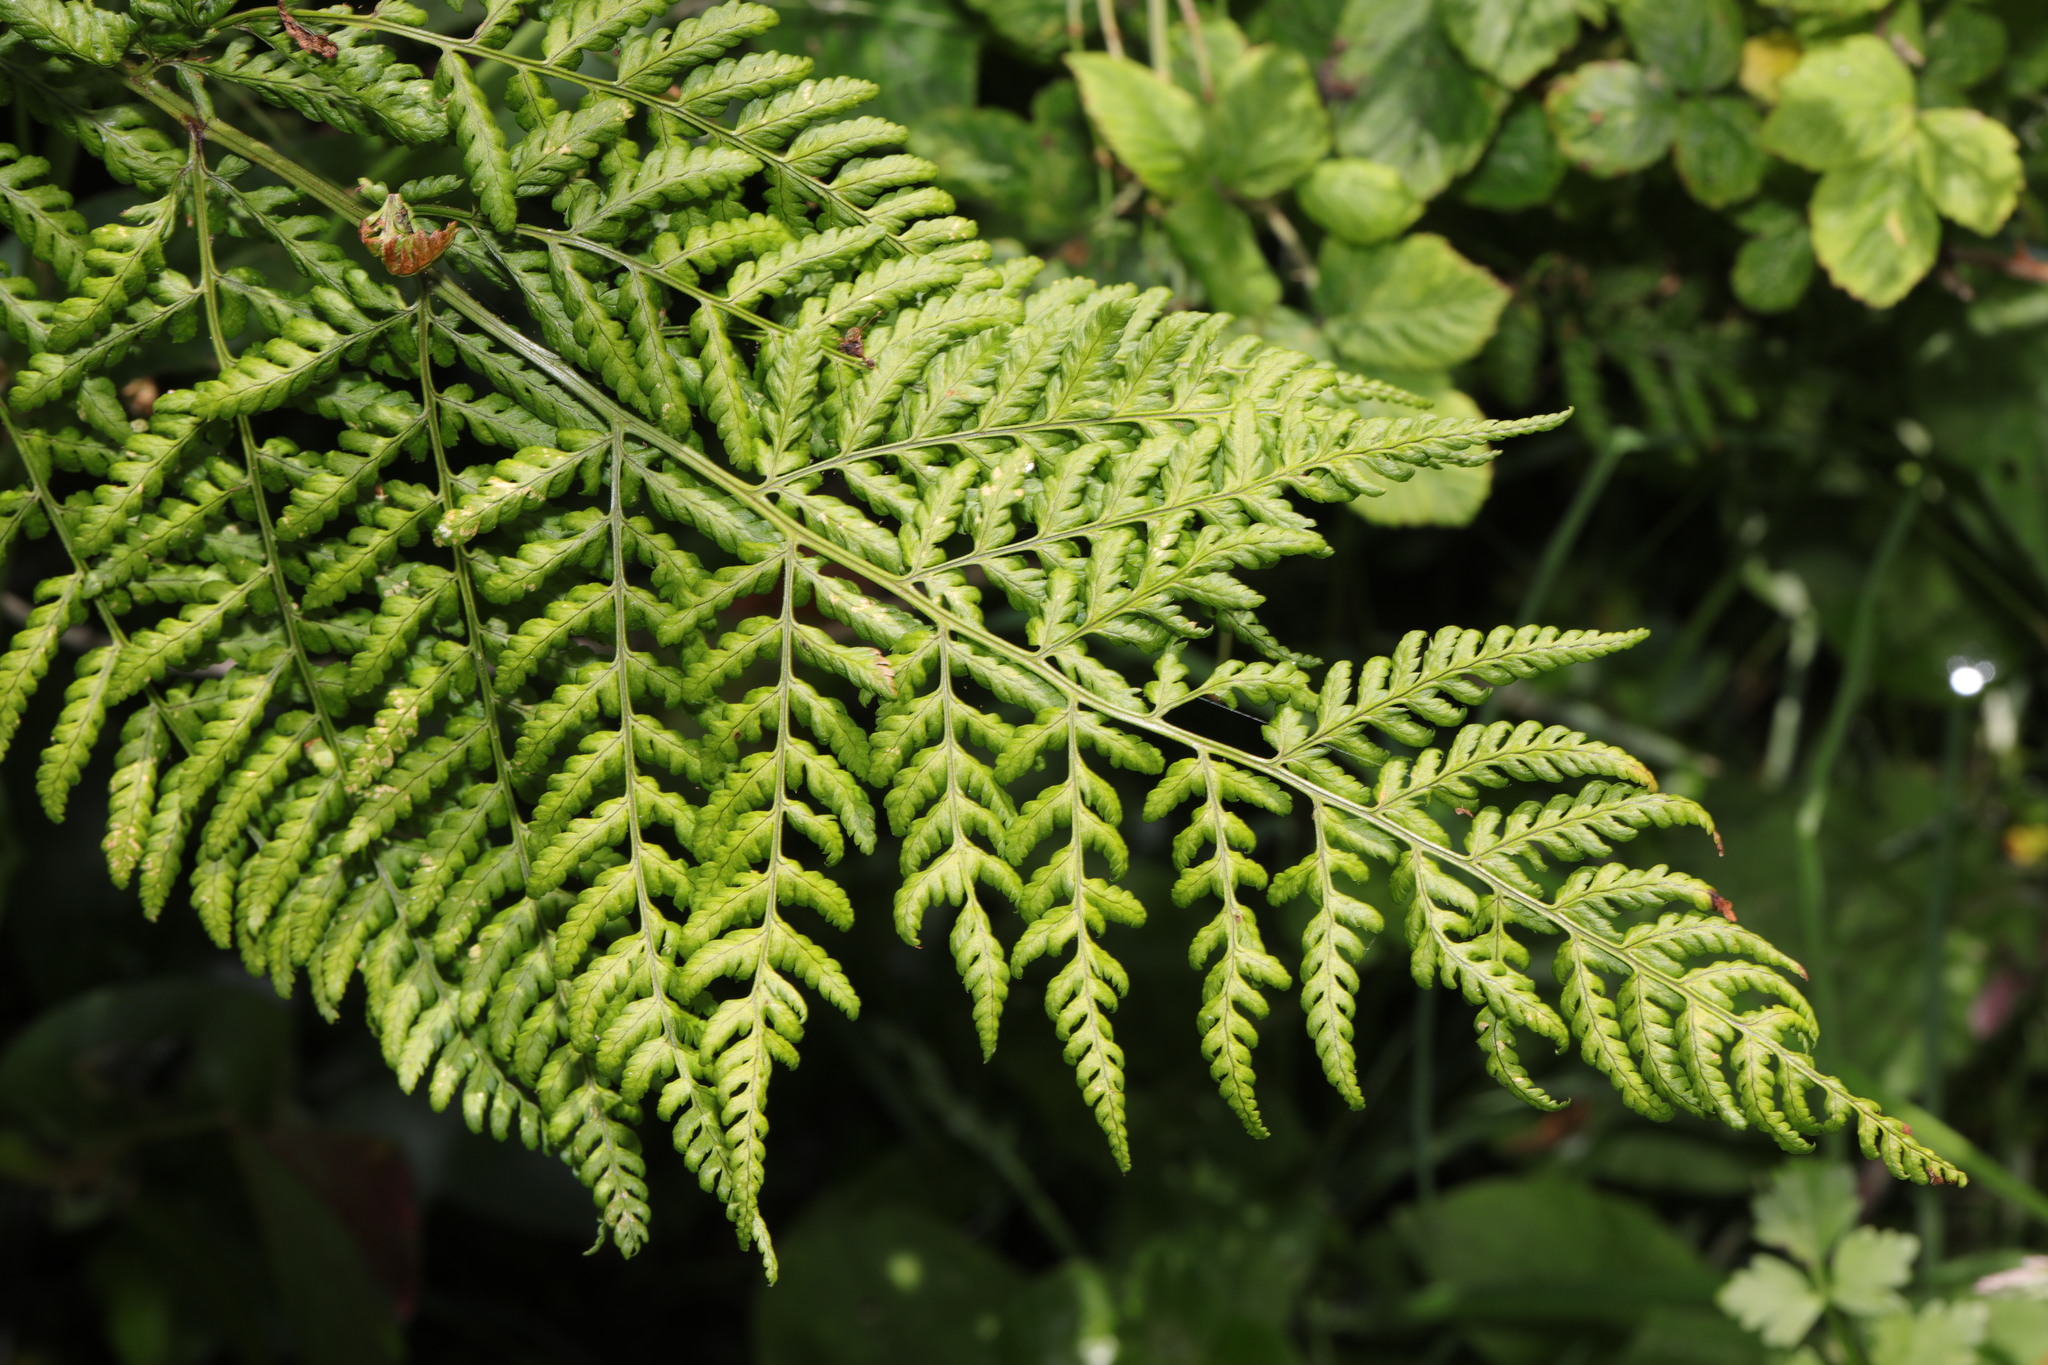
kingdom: Plantae
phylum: Tracheophyta
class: Polypodiopsida
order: Polypodiales
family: Dryopteridaceae
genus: Dryopteris
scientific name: Dryopteris dilatata
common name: Broad buckler-fern
